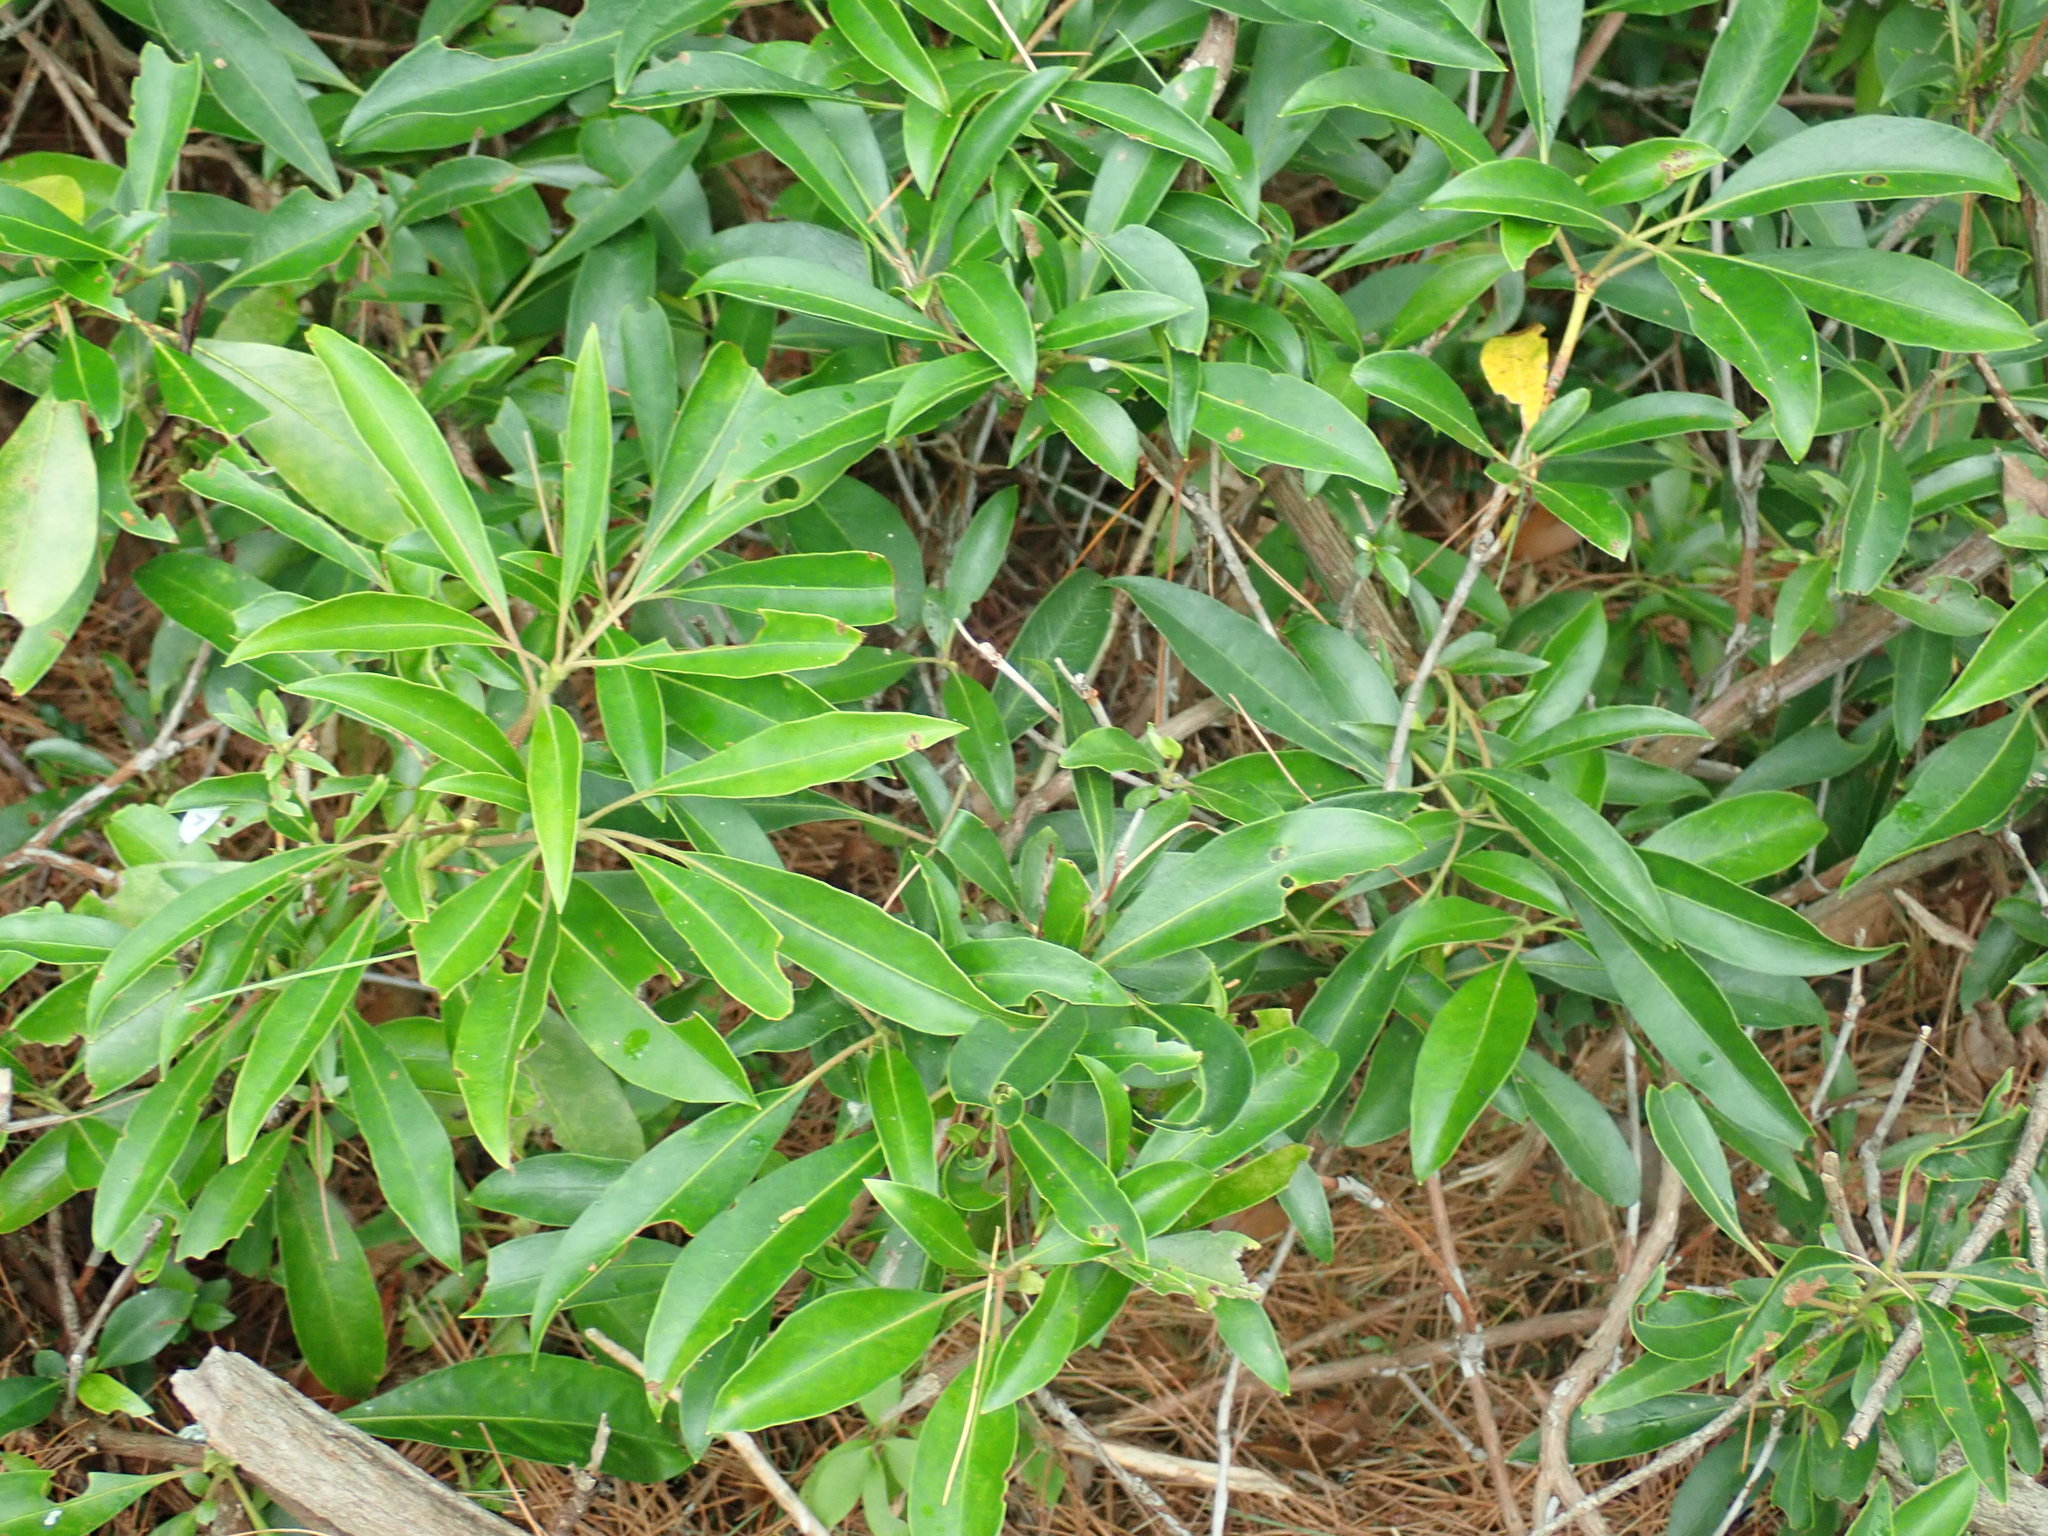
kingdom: Plantae
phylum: Tracheophyta
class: Magnoliopsida
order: Ericales
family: Ericaceae
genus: Kalmia
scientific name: Kalmia latifolia
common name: Mountain-laurel
